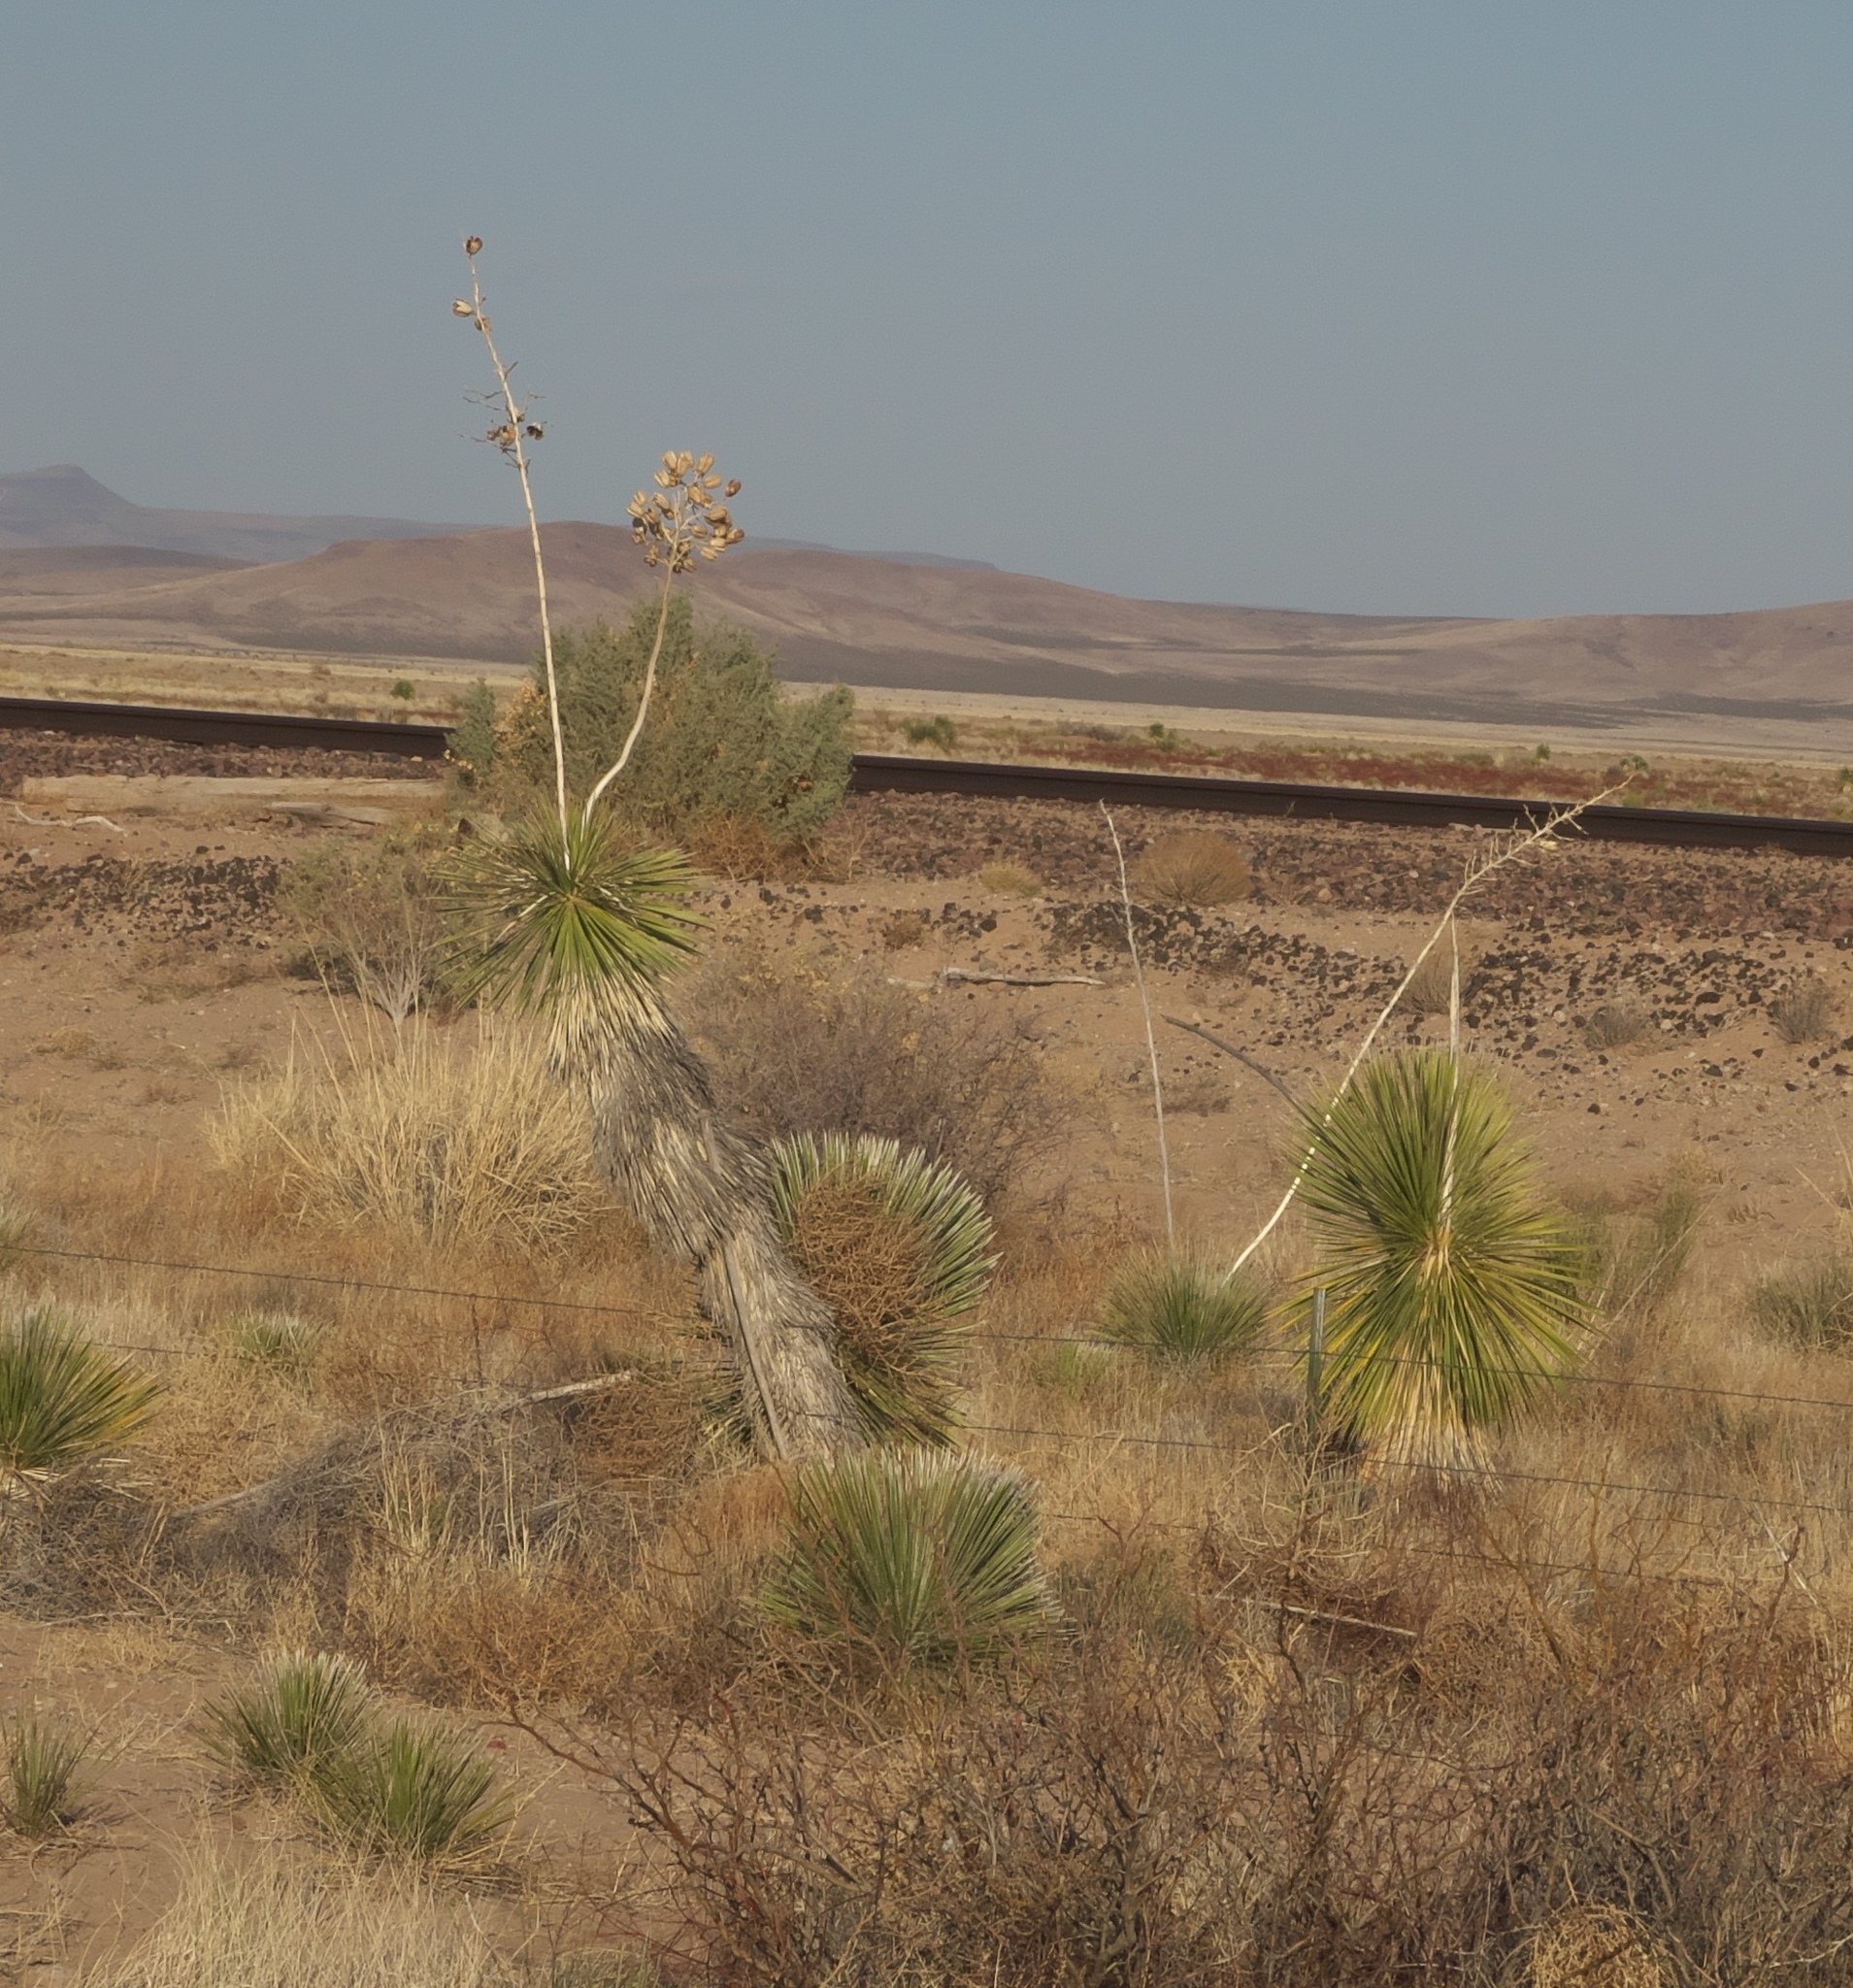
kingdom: Plantae
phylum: Tracheophyta
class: Liliopsida
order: Asparagales
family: Asparagaceae
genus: Yucca
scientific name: Yucca elata
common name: Palmella
